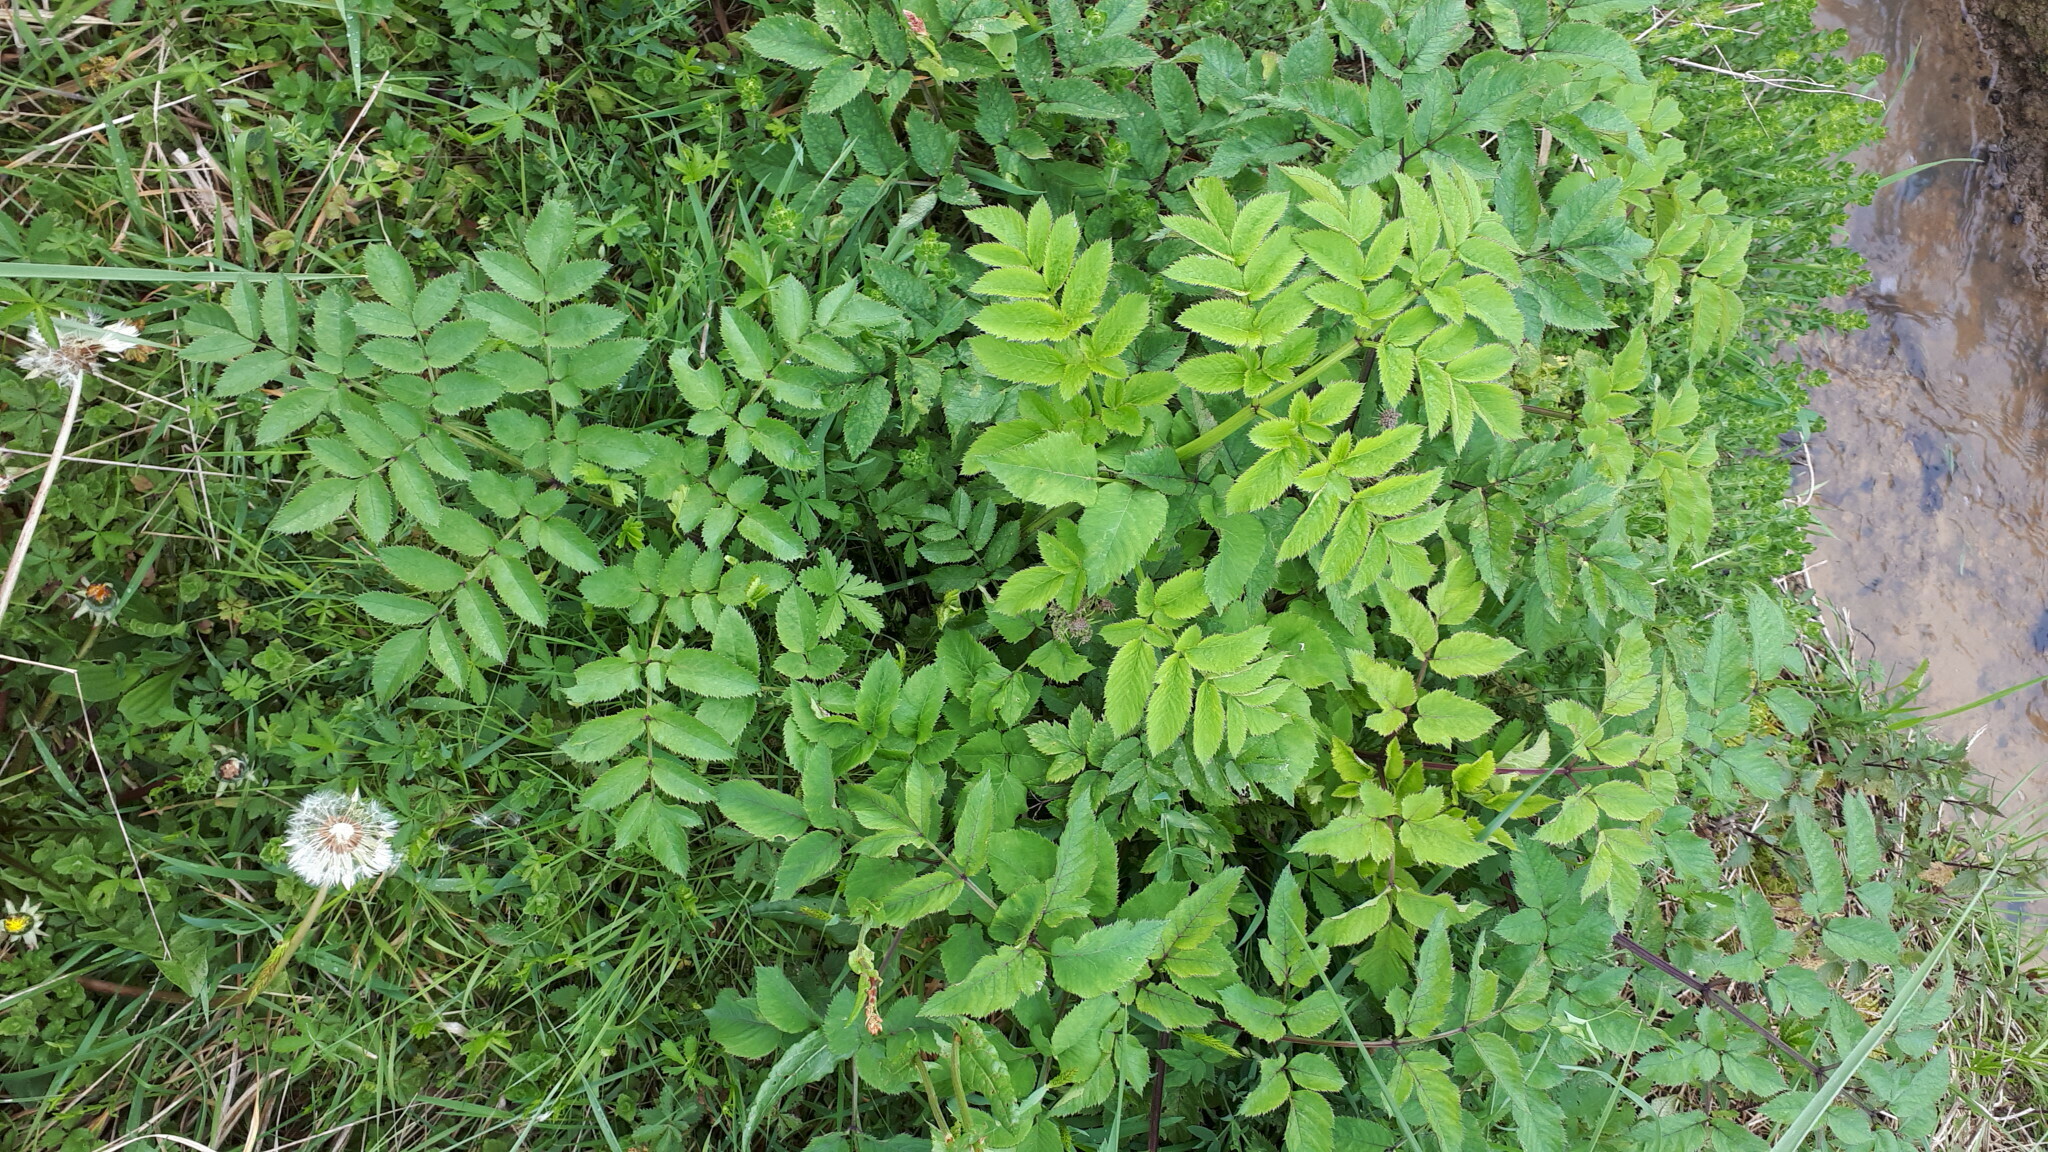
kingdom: Plantae
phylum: Tracheophyta
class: Magnoliopsida
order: Apiales
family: Apiaceae
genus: Angelica
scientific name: Angelica sylvestris
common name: Wild angelica
